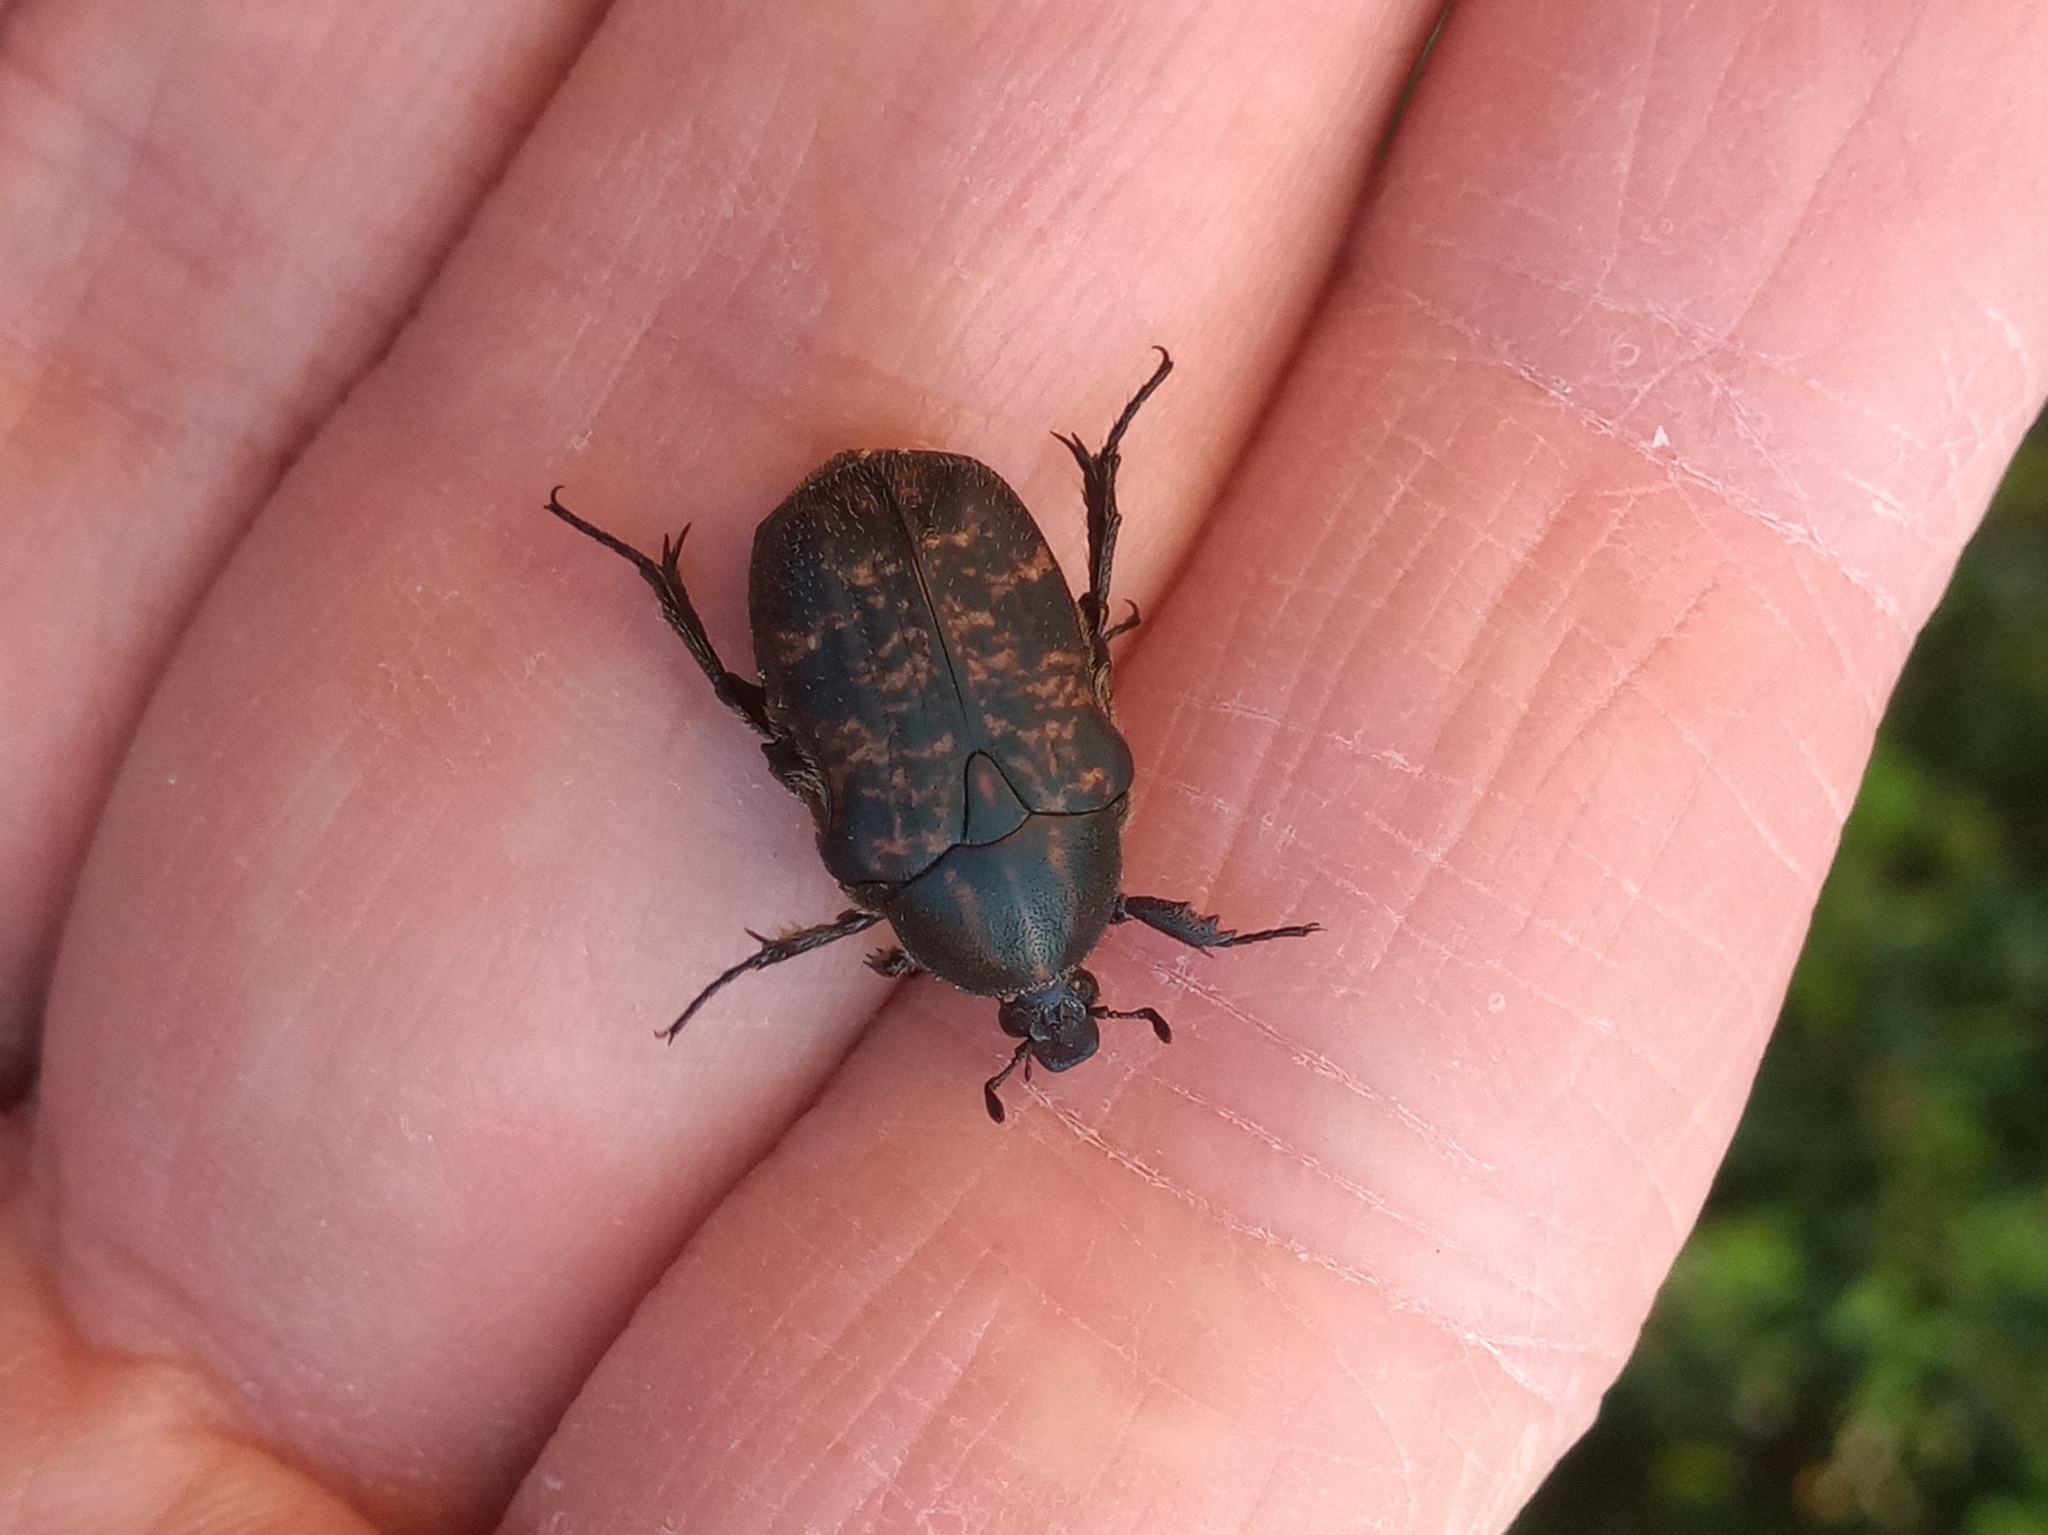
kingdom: Animalia
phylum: Arthropoda
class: Insecta
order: Coleoptera
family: Scarabaeidae
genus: Euphoria
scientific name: Euphoria schotti
